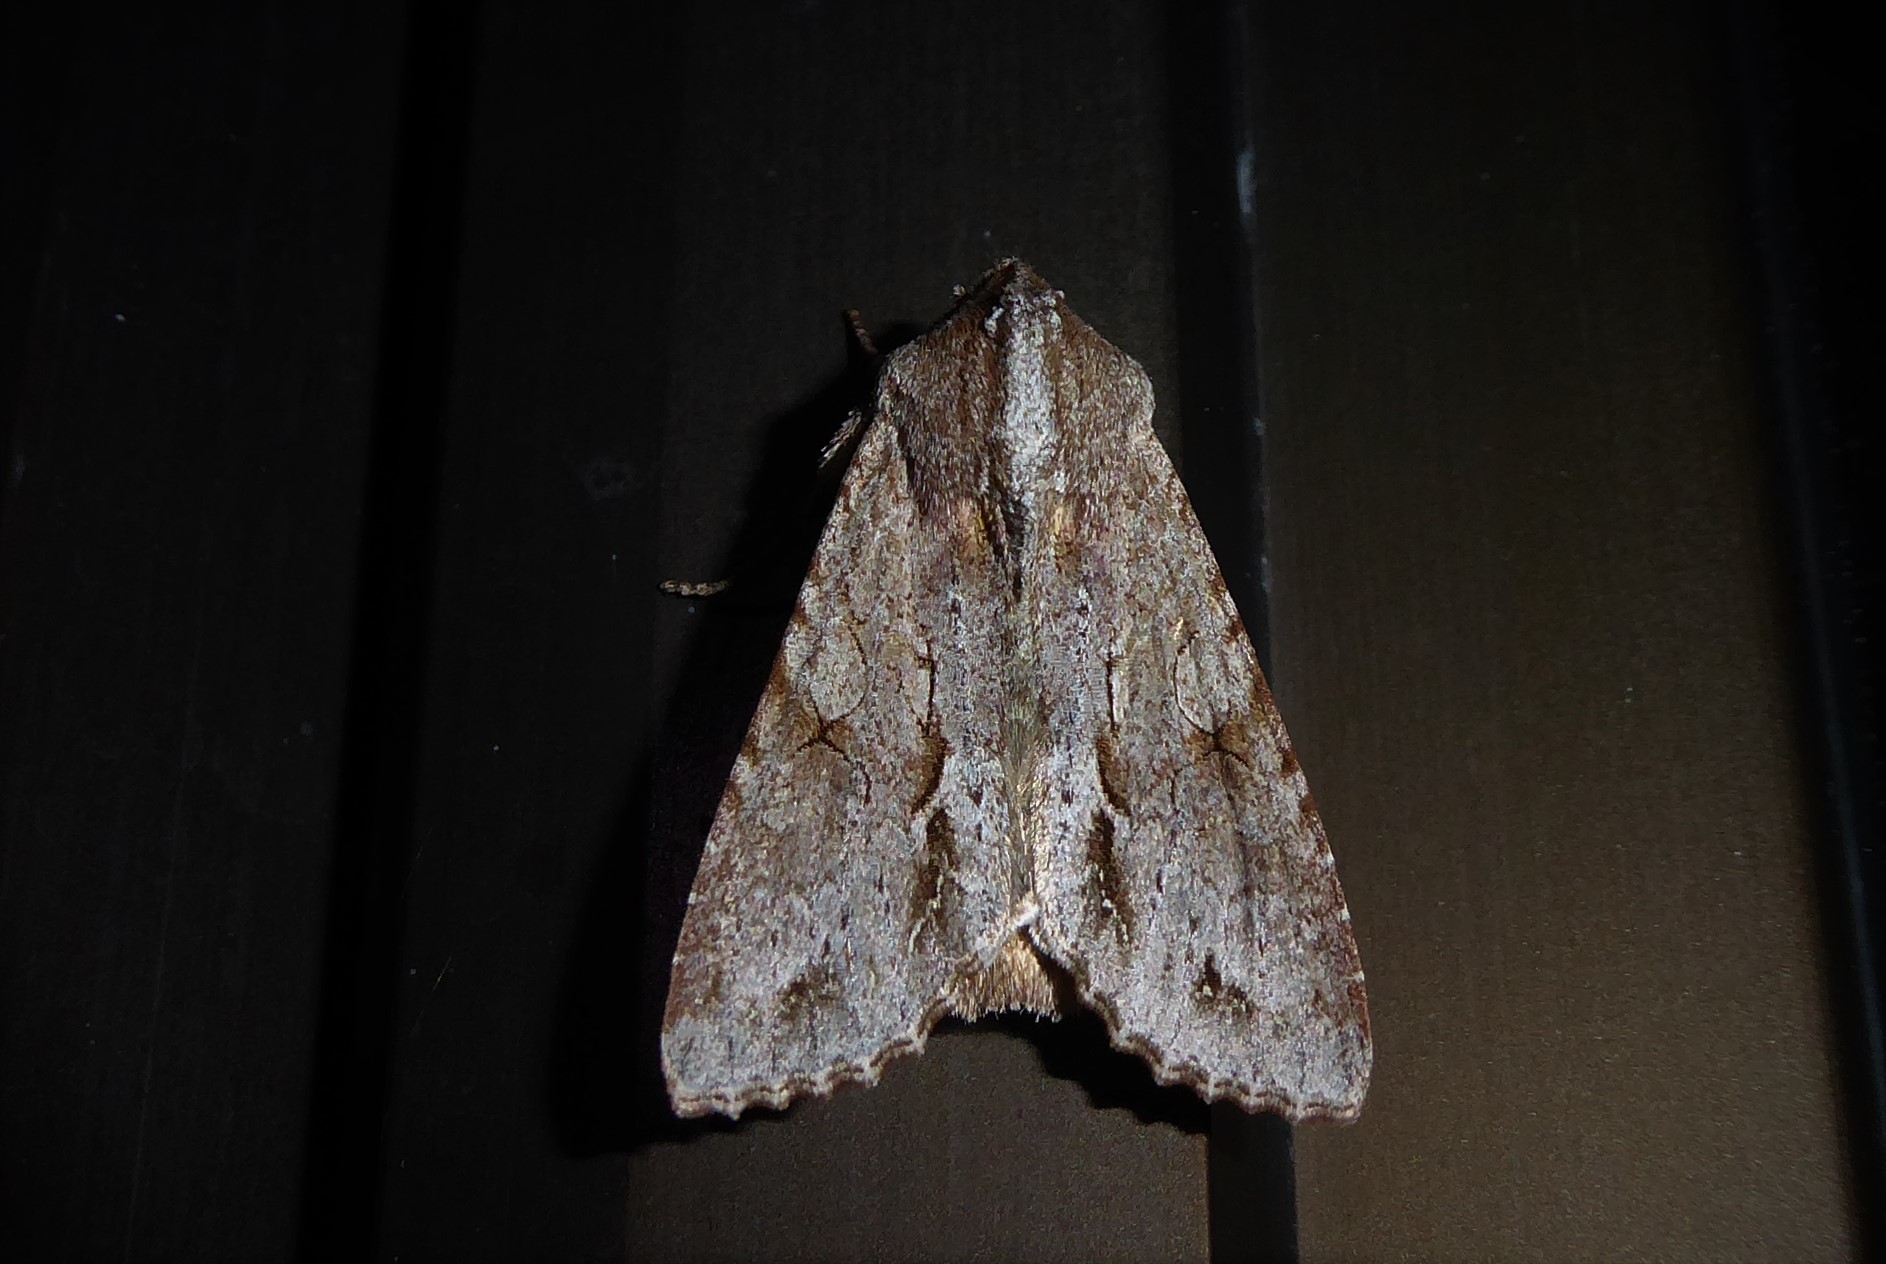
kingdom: Animalia
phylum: Arthropoda
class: Insecta
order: Lepidoptera
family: Noctuidae
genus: Ichneutica
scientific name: Ichneutica
